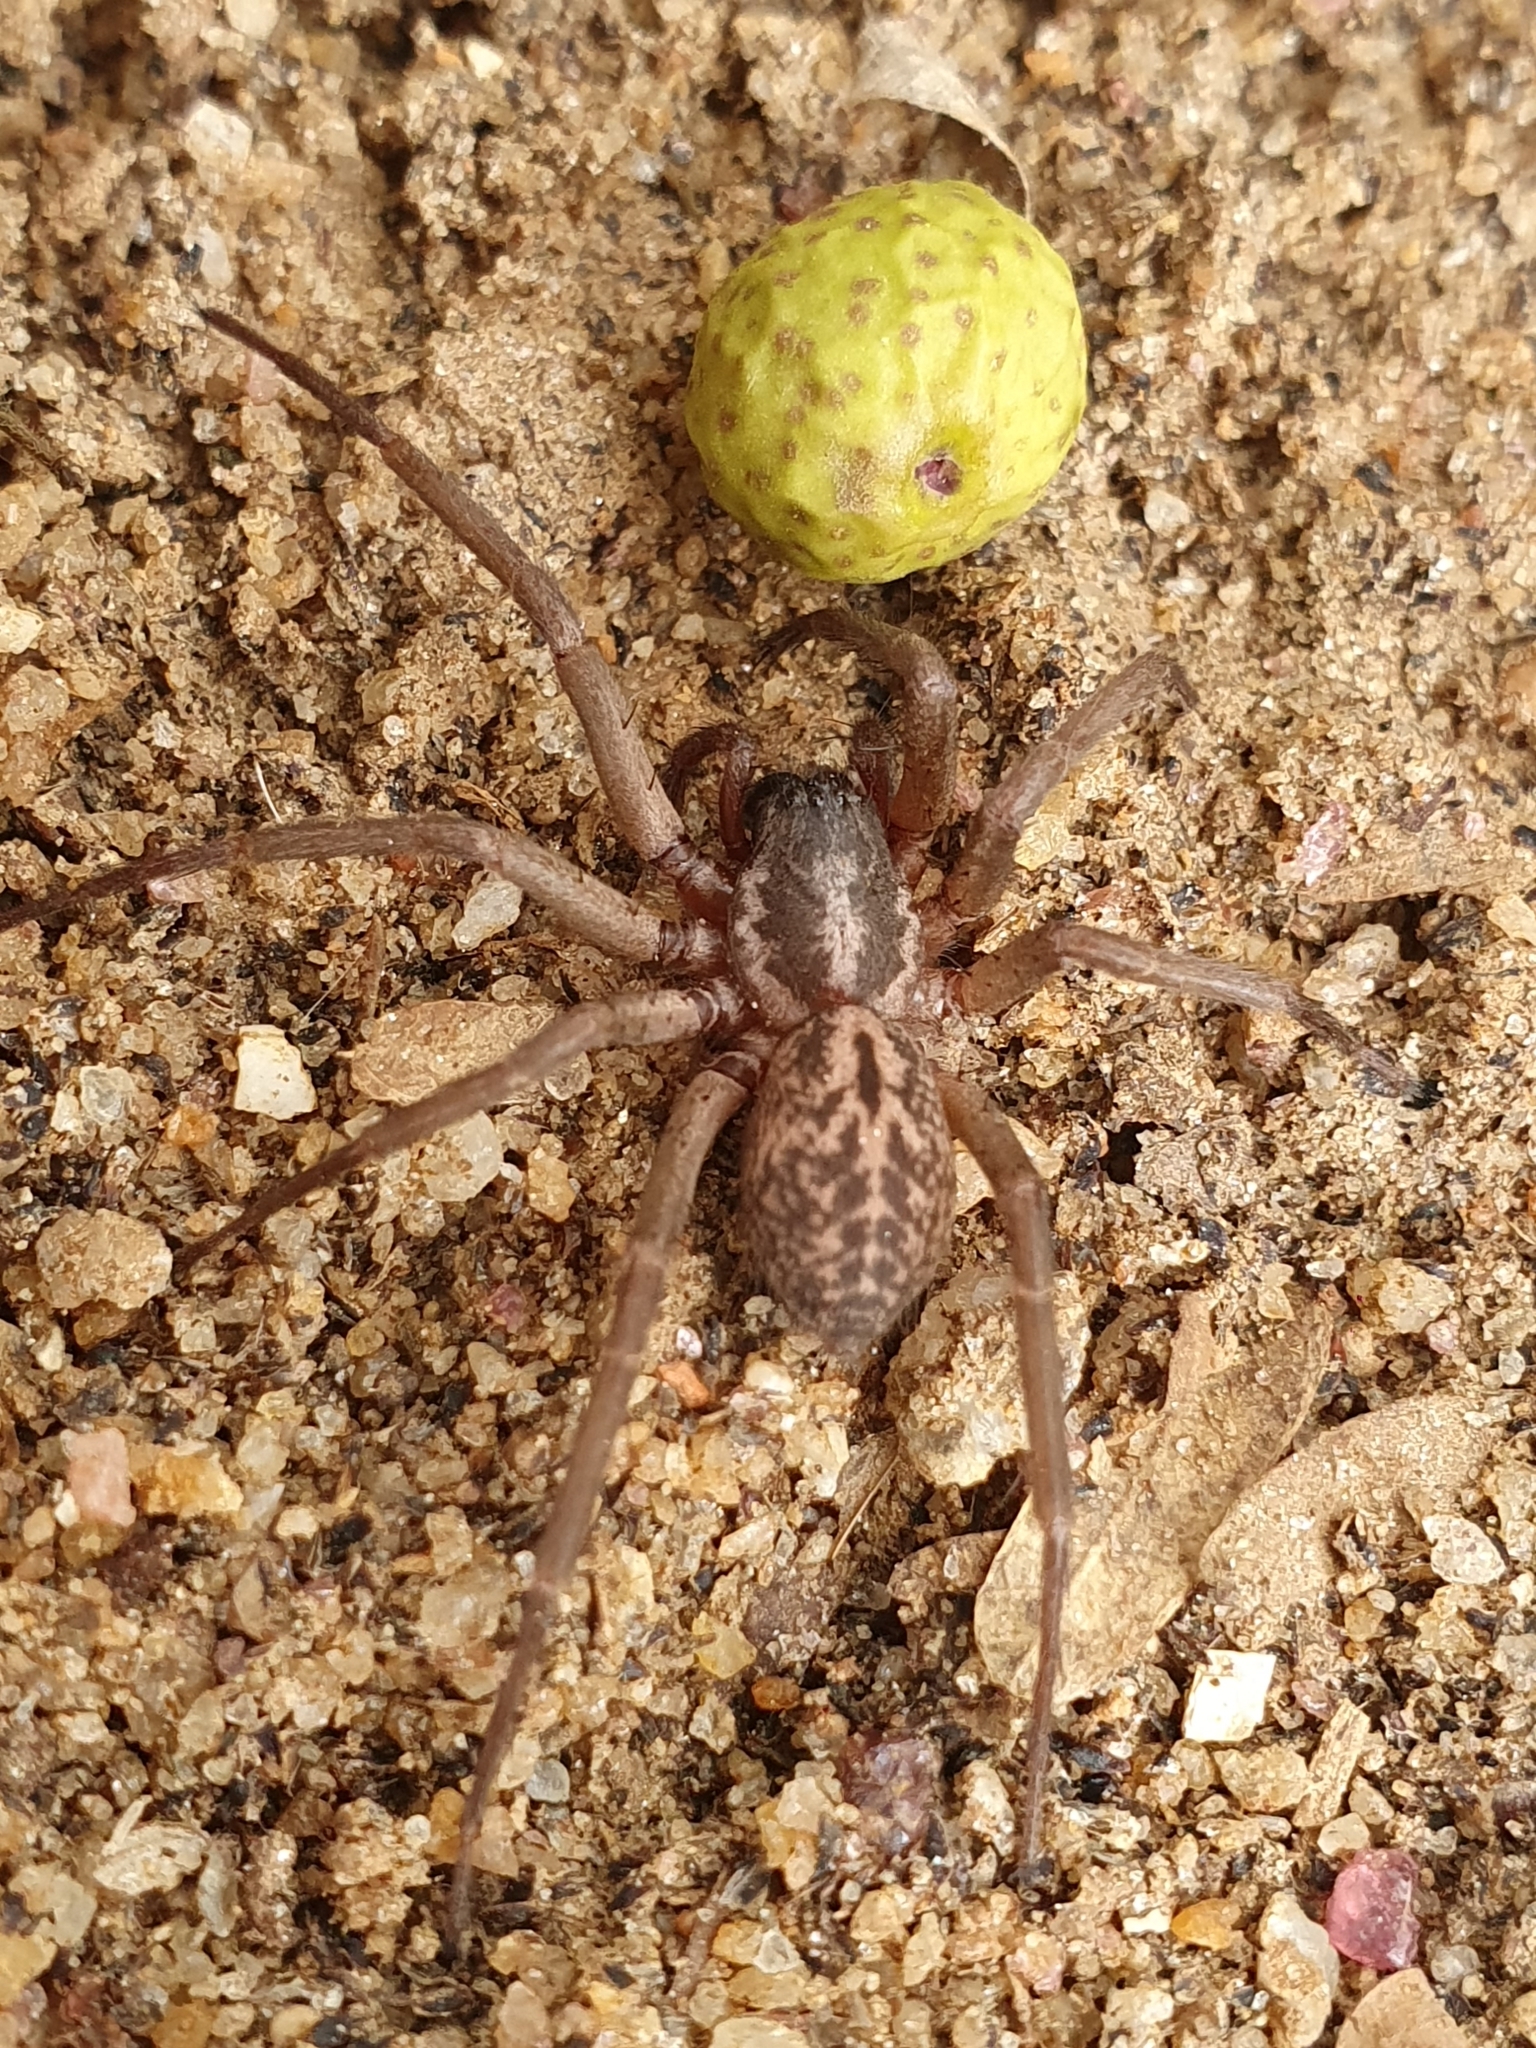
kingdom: Animalia
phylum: Arthropoda
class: Arachnida
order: Araneae
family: Corinnidae
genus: Xeropigo
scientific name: Xeropigo tridentiger
